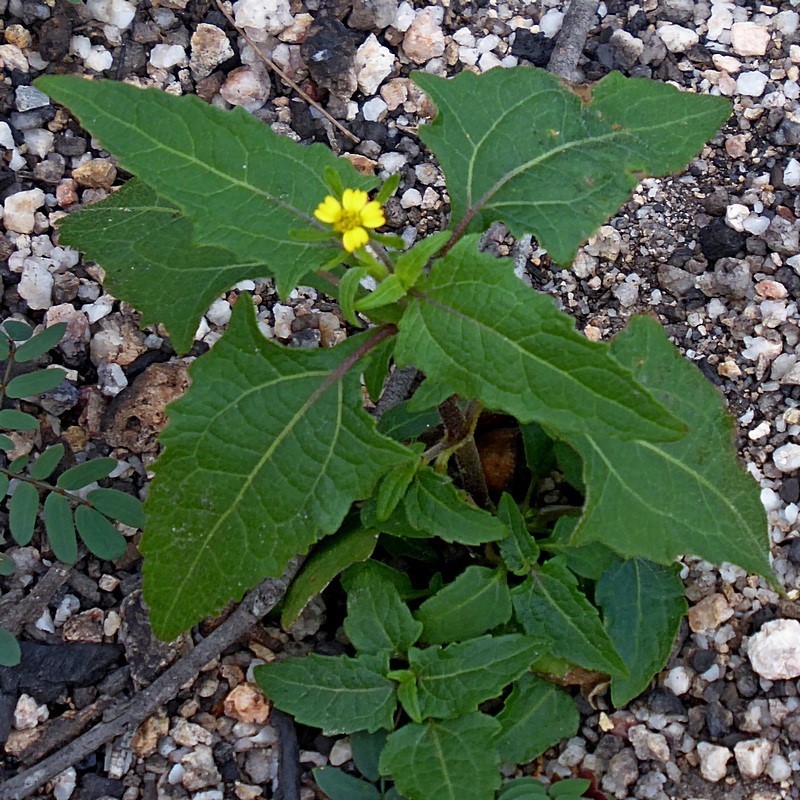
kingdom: Plantae
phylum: Tracheophyta
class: Magnoliopsida
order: Asterales
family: Asteraceae
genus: Sigesbeckia
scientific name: Sigesbeckia orientalis
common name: Eastern st paul's-wort
